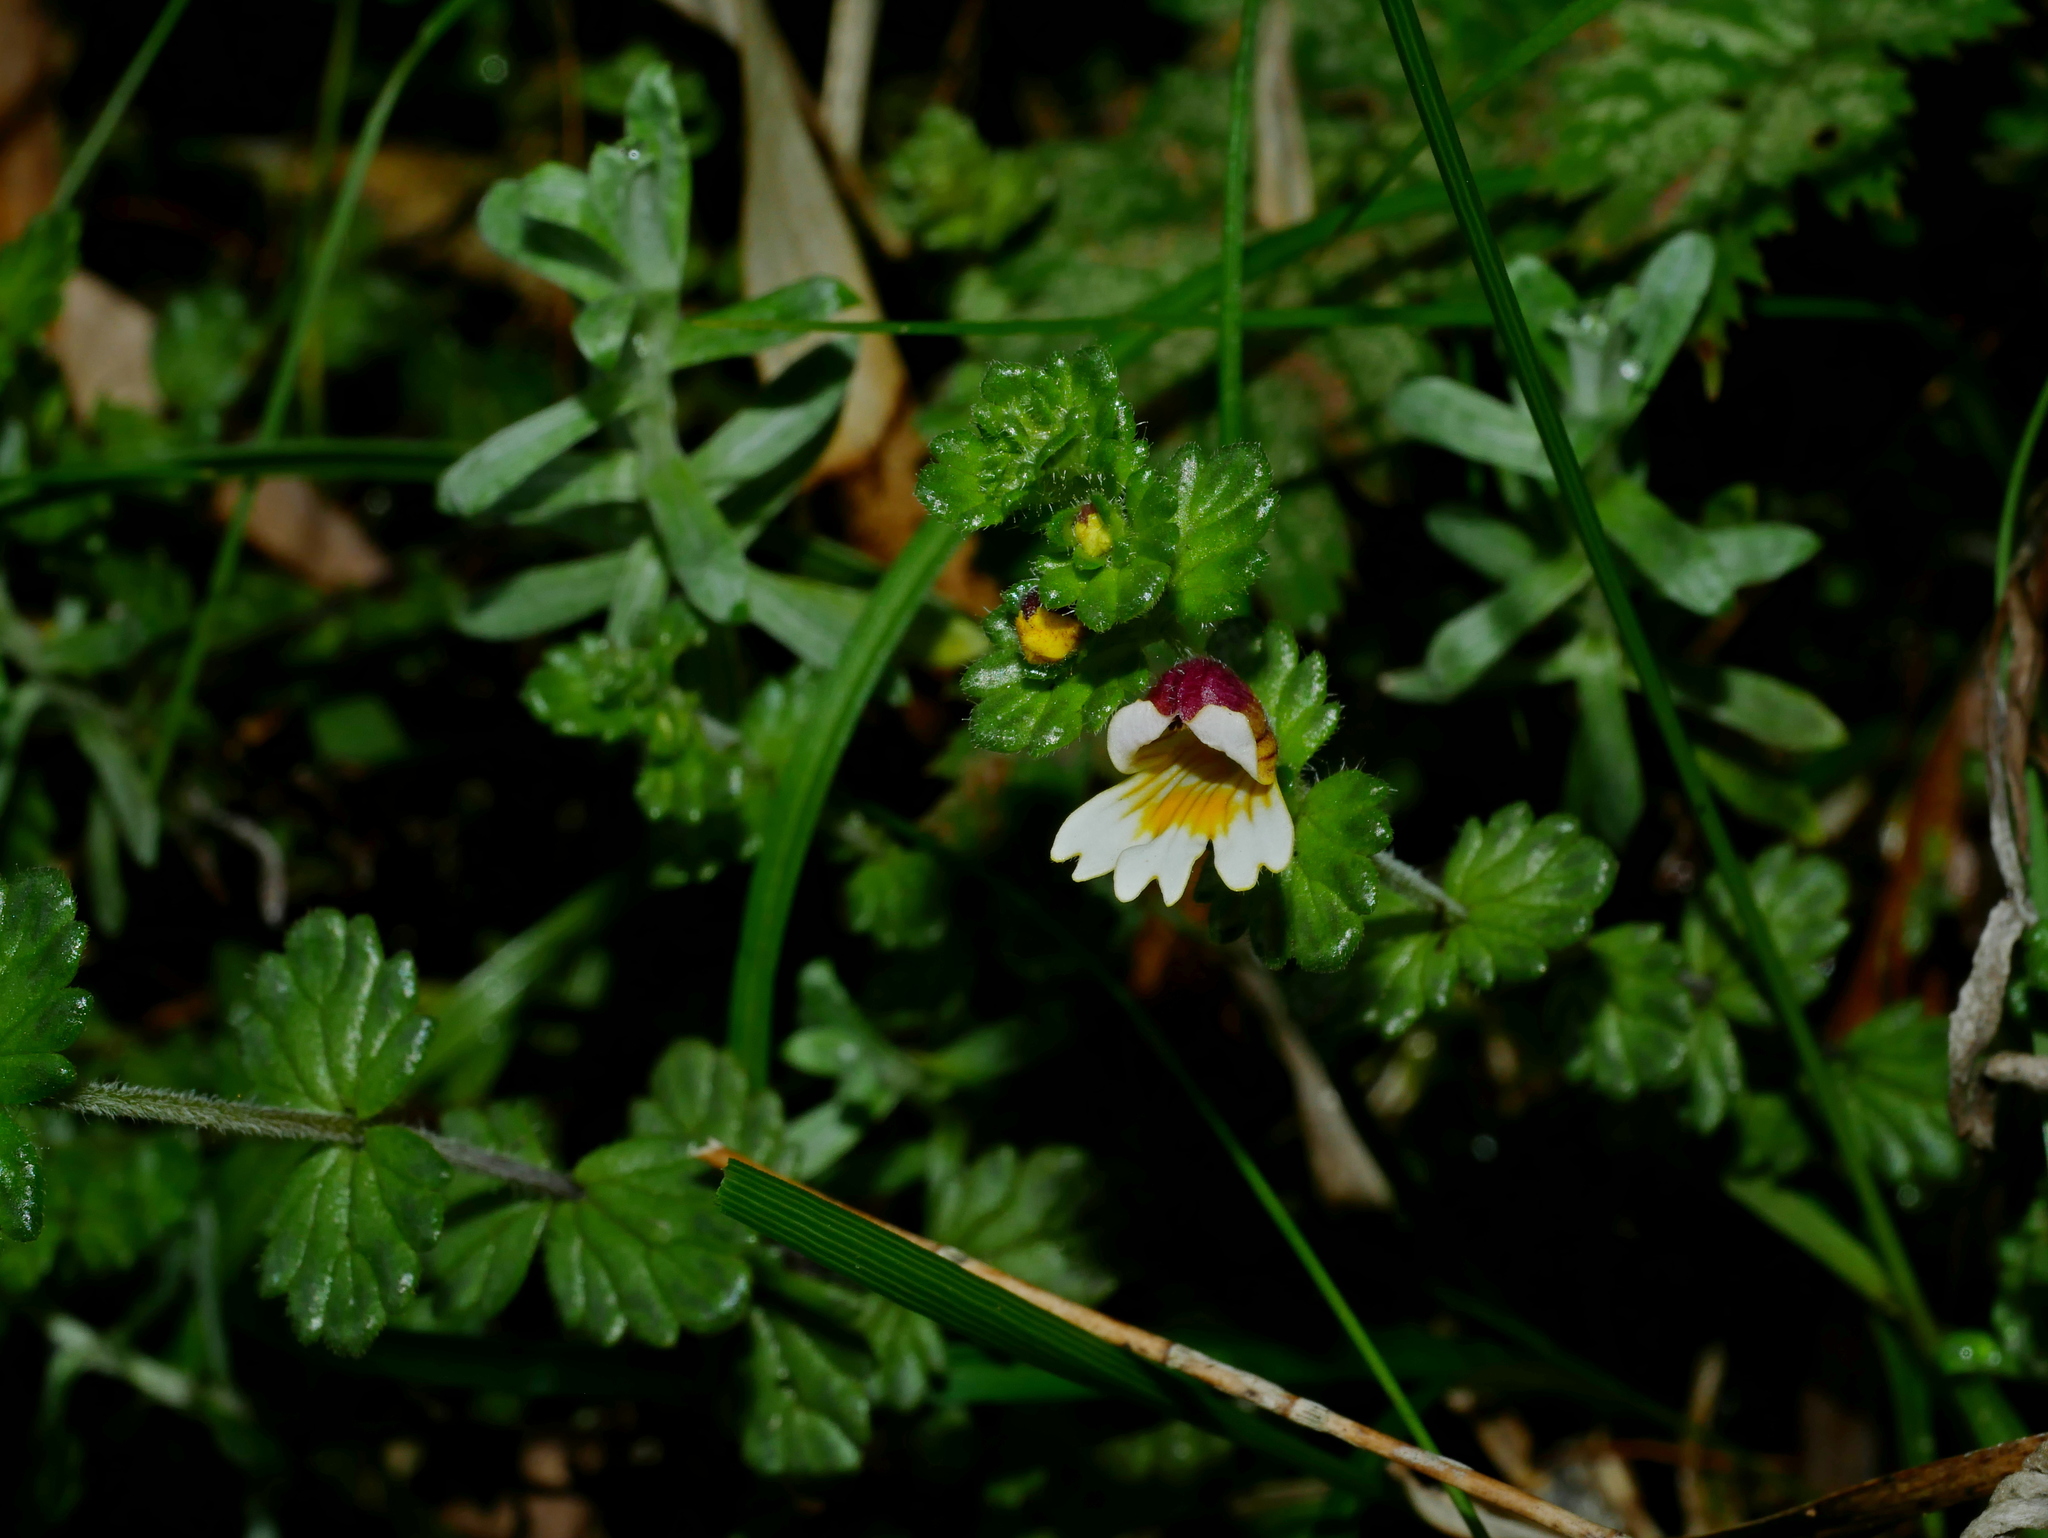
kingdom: Plantae
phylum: Tracheophyta
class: Magnoliopsida
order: Lamiales
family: Orobanchaceae
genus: Euphrasia
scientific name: Euphrasia transmorrisonensis
